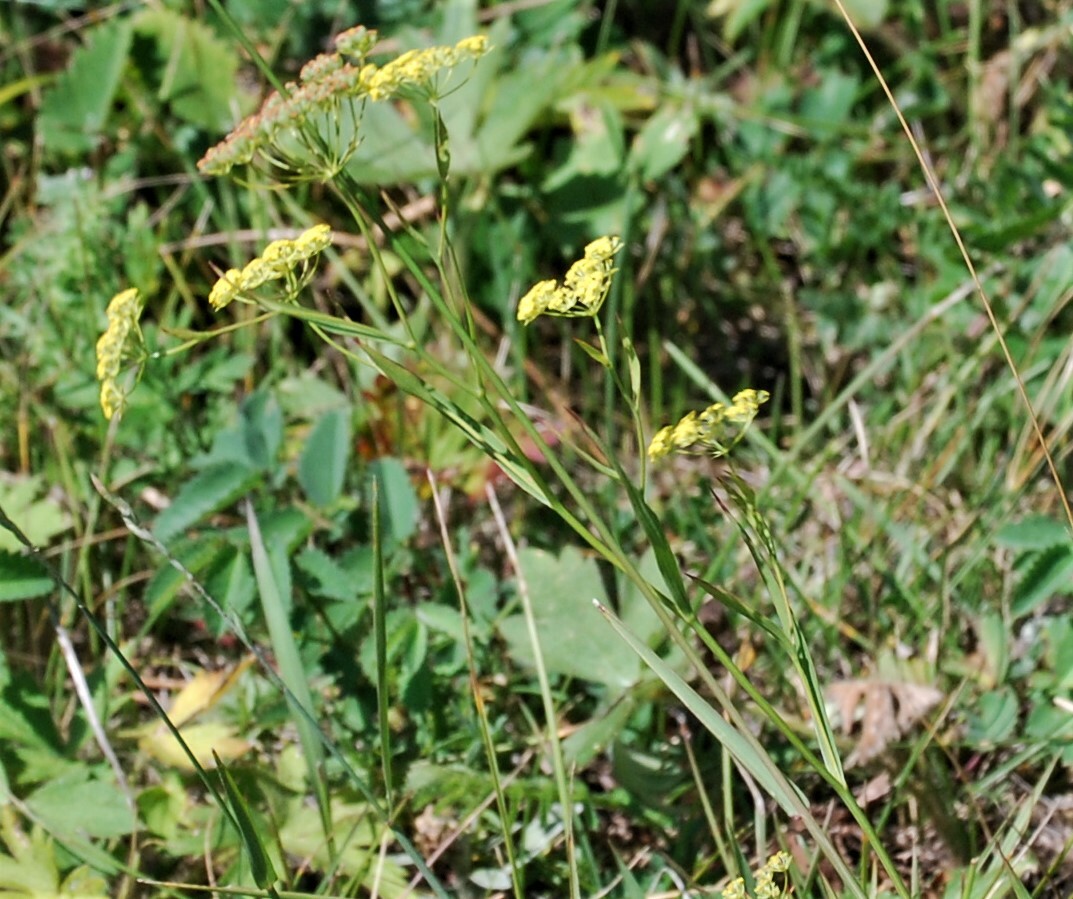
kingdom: Plantae
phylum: Tracheophyta
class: Magnoliopsida
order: Apiales
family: Apiaceae
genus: Bupleurum
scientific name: Bupleurum scorzonerifolium
